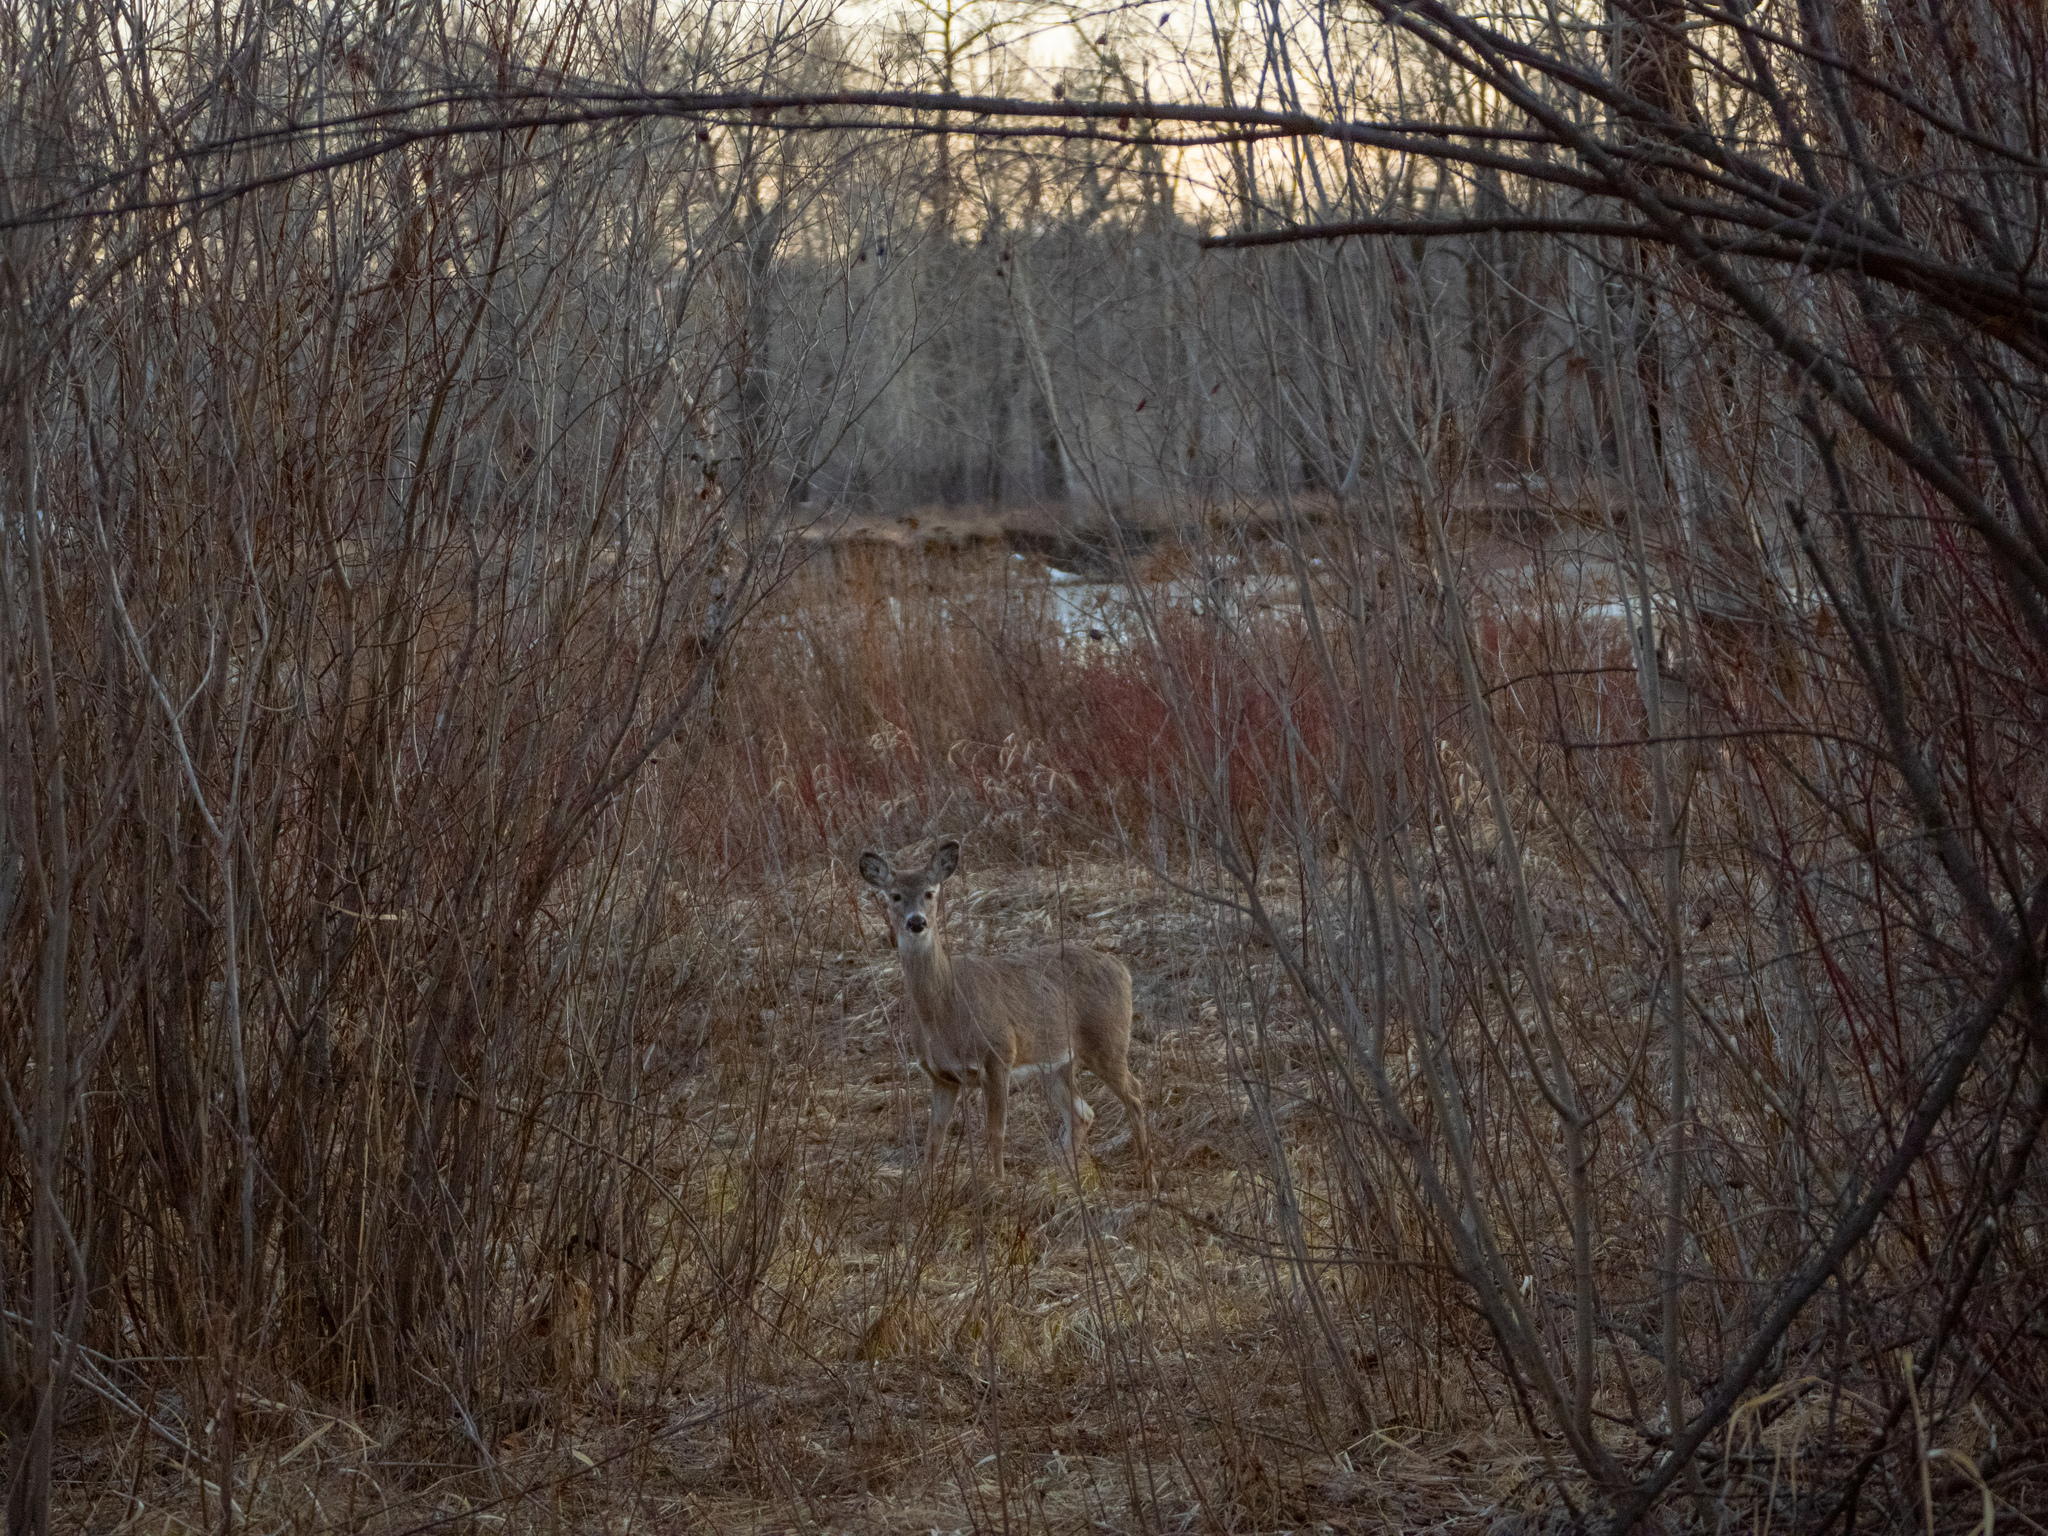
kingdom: Animalia
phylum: Chordata
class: Mammalia
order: Artiodactyla
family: Cervidae
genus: Odocoileus
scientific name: Odocoileus virginianus
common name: White-tailed deer
